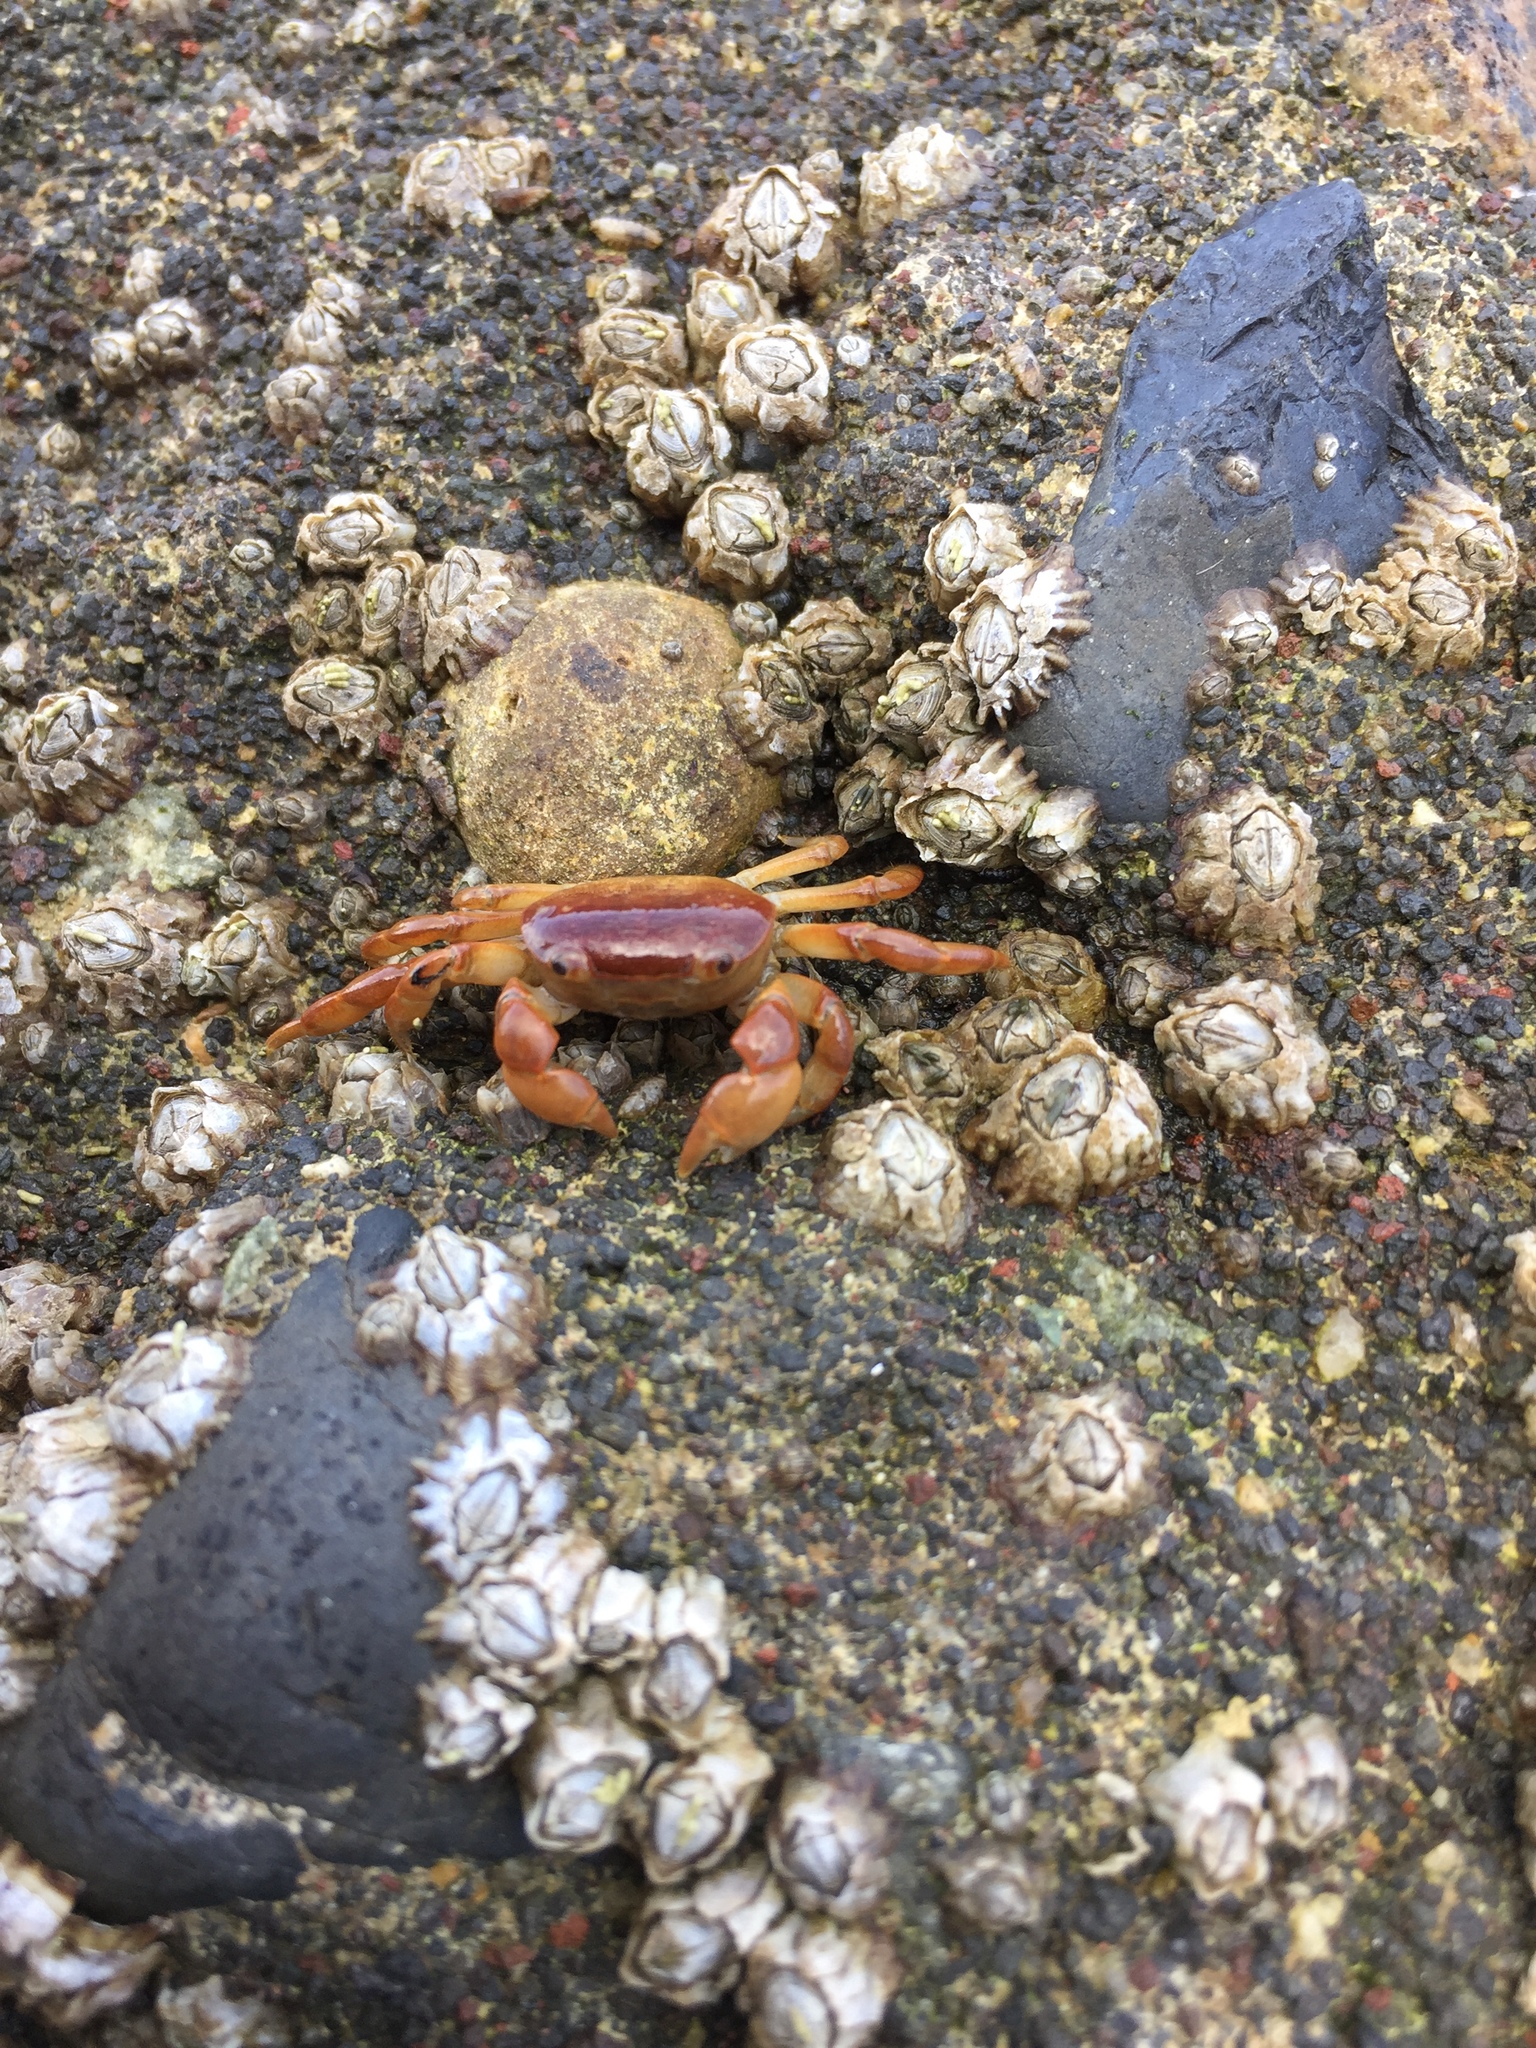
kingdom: Animalia
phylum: Arthropoda
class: Malacostraca
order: Decapoda
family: Varunidae
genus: Cyclograpsus
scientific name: Cyclograpsus cinereus
